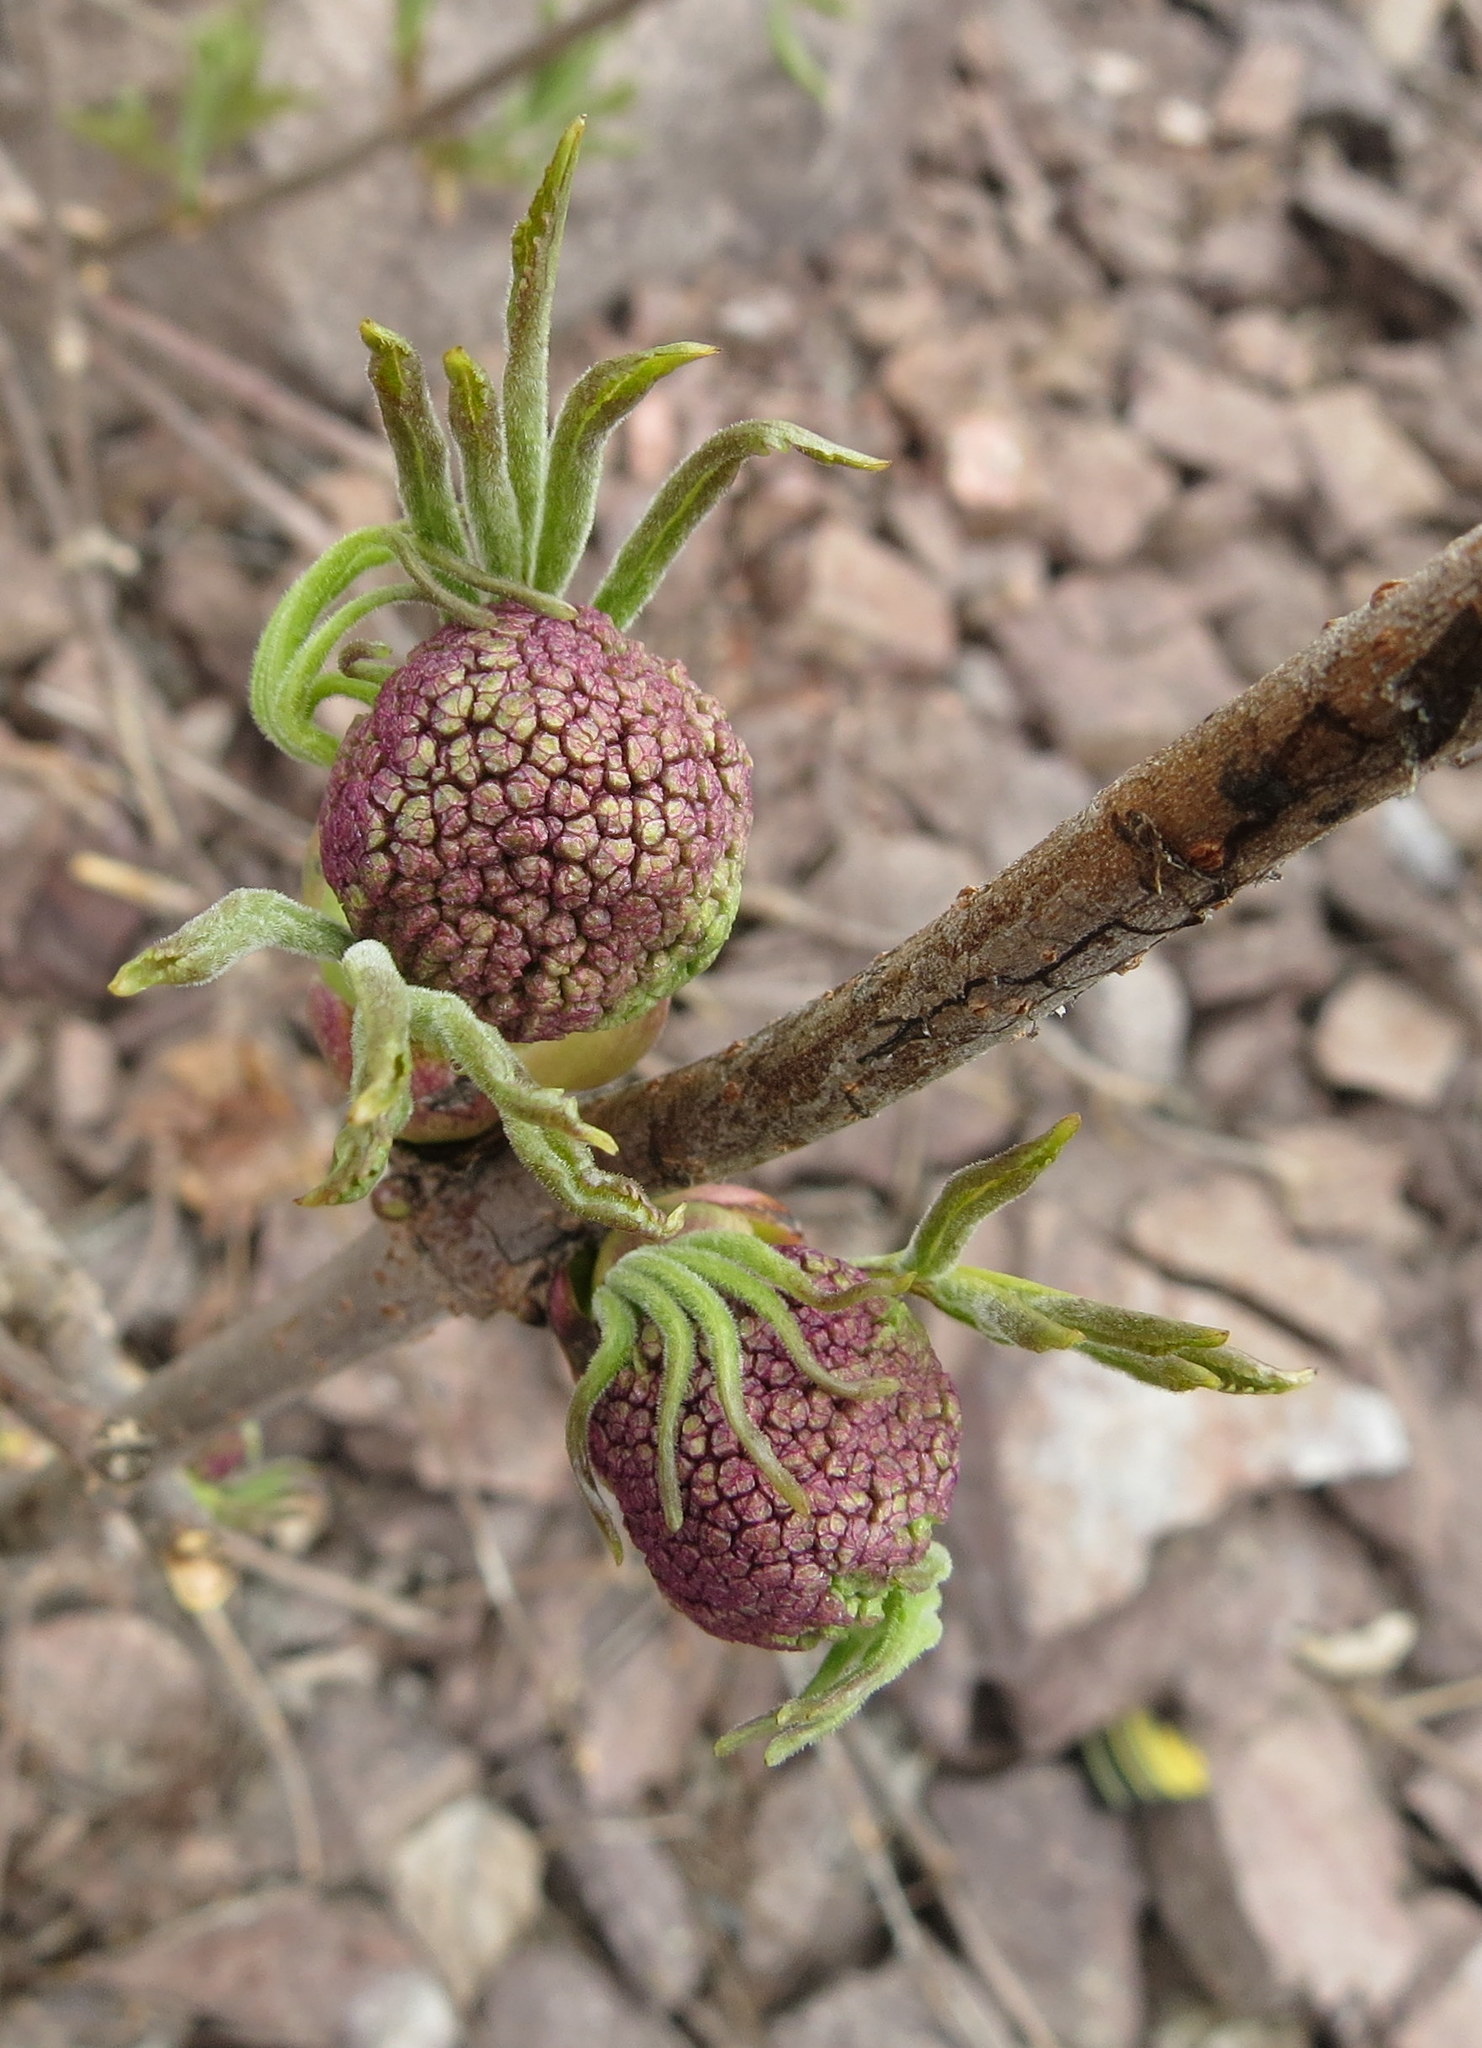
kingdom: Plantae
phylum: Tracheophyta
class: Magnoliopsida
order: Dipsacales
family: Viburnaceae
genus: Sambucus
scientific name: Sambucus racemosa
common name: Red-berried elder
